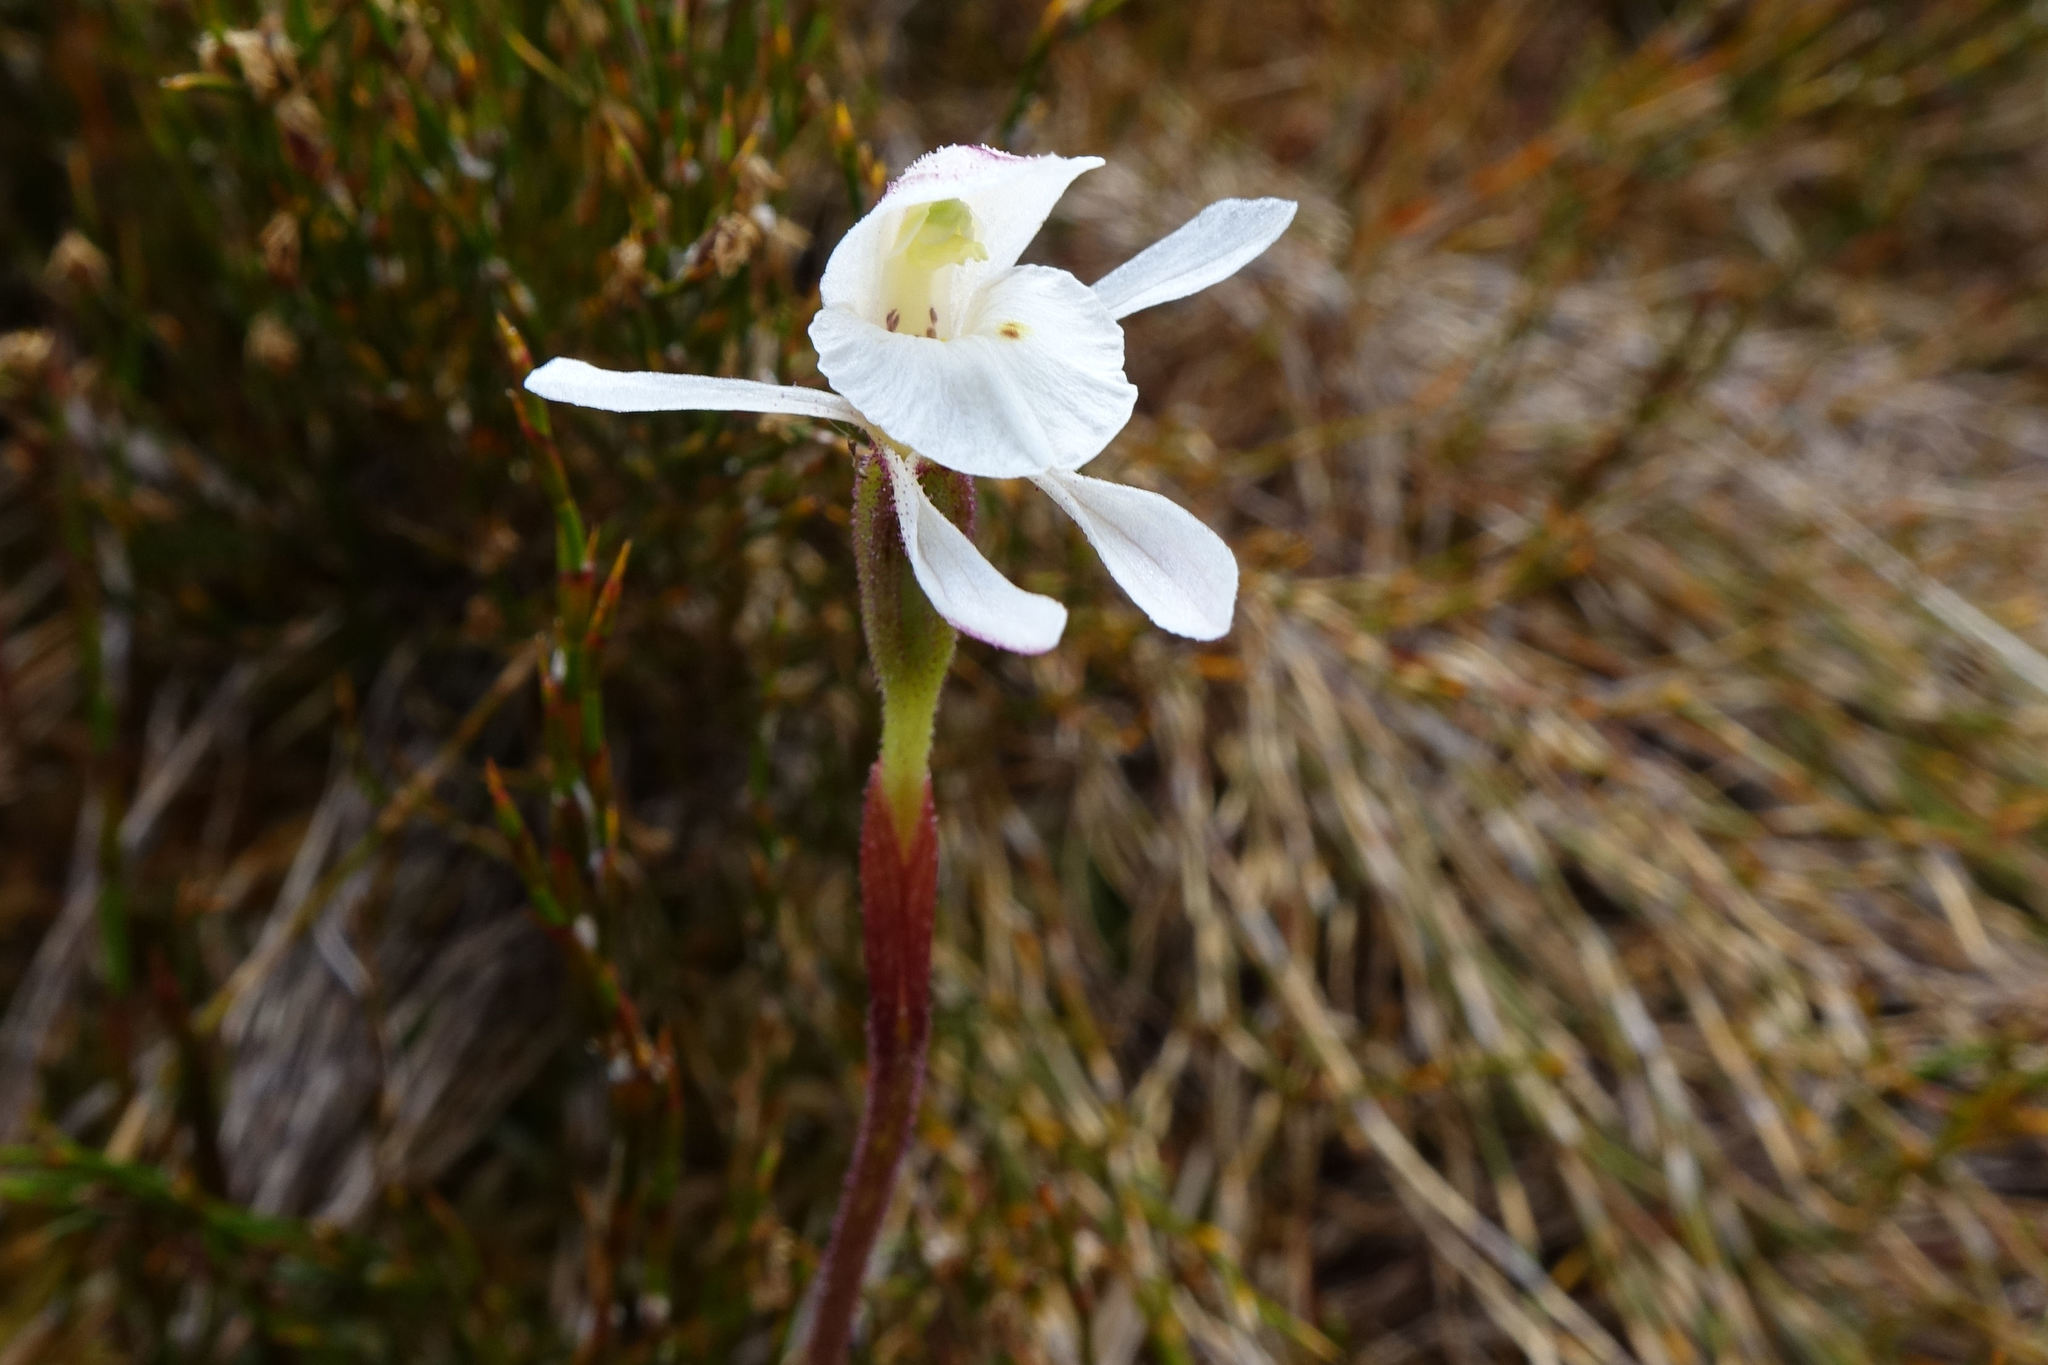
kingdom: Plantae
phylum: Tracheophyta
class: Liliopsida
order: Asparagales
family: Orchidaceae
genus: Aporostylis
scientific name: Aporostylis bifolia
